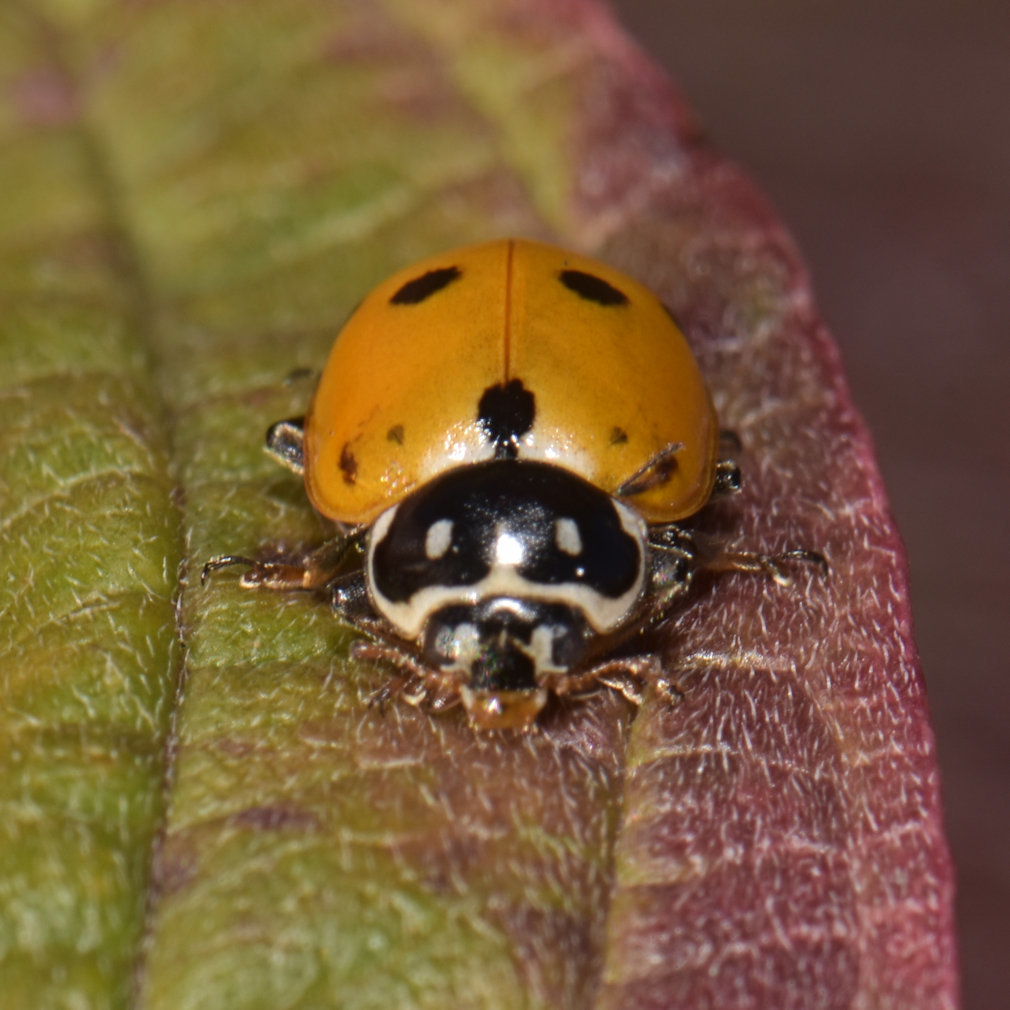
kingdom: Animalia
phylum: Arthropoda
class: Insecta
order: Coleoptera
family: Coccinellidae
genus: Hippodamia
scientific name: Hippodamia variegata
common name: Ladybird beetle
